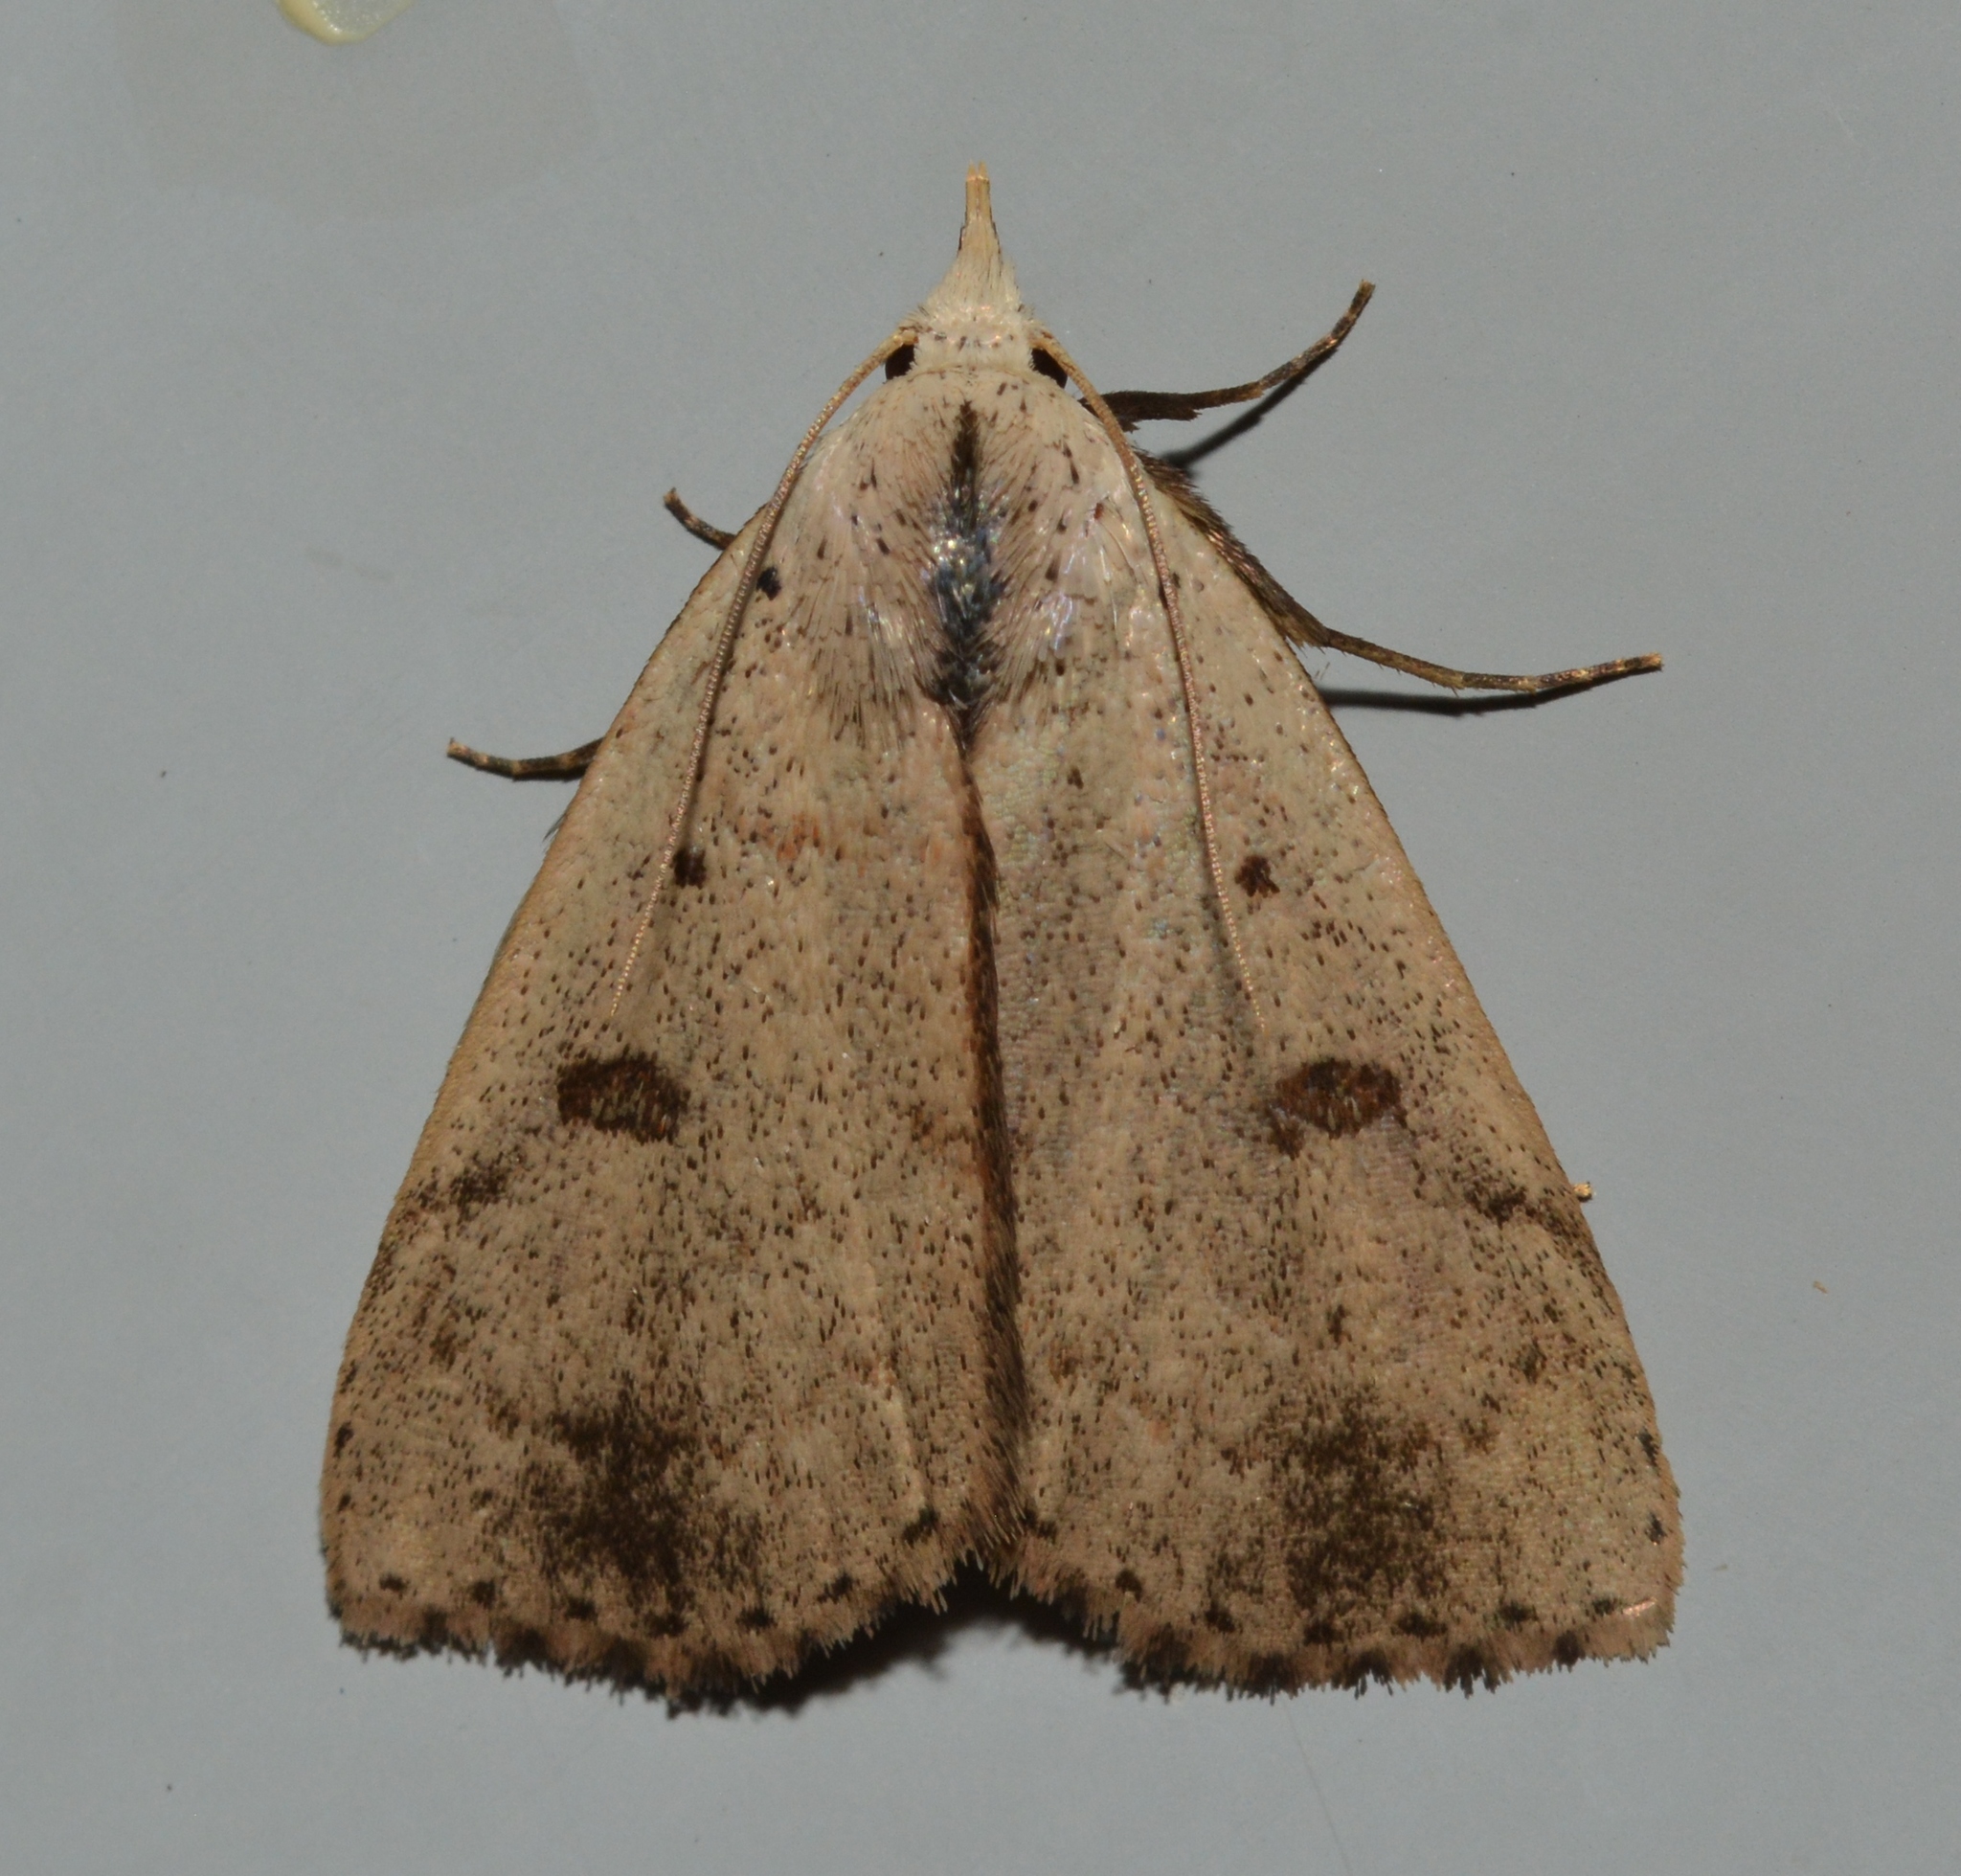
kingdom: Animalia
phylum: Arthropoda
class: Insecta
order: Lepidoptera
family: Erebidae
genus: Scolecocampa
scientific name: Scolecocampa liburna
